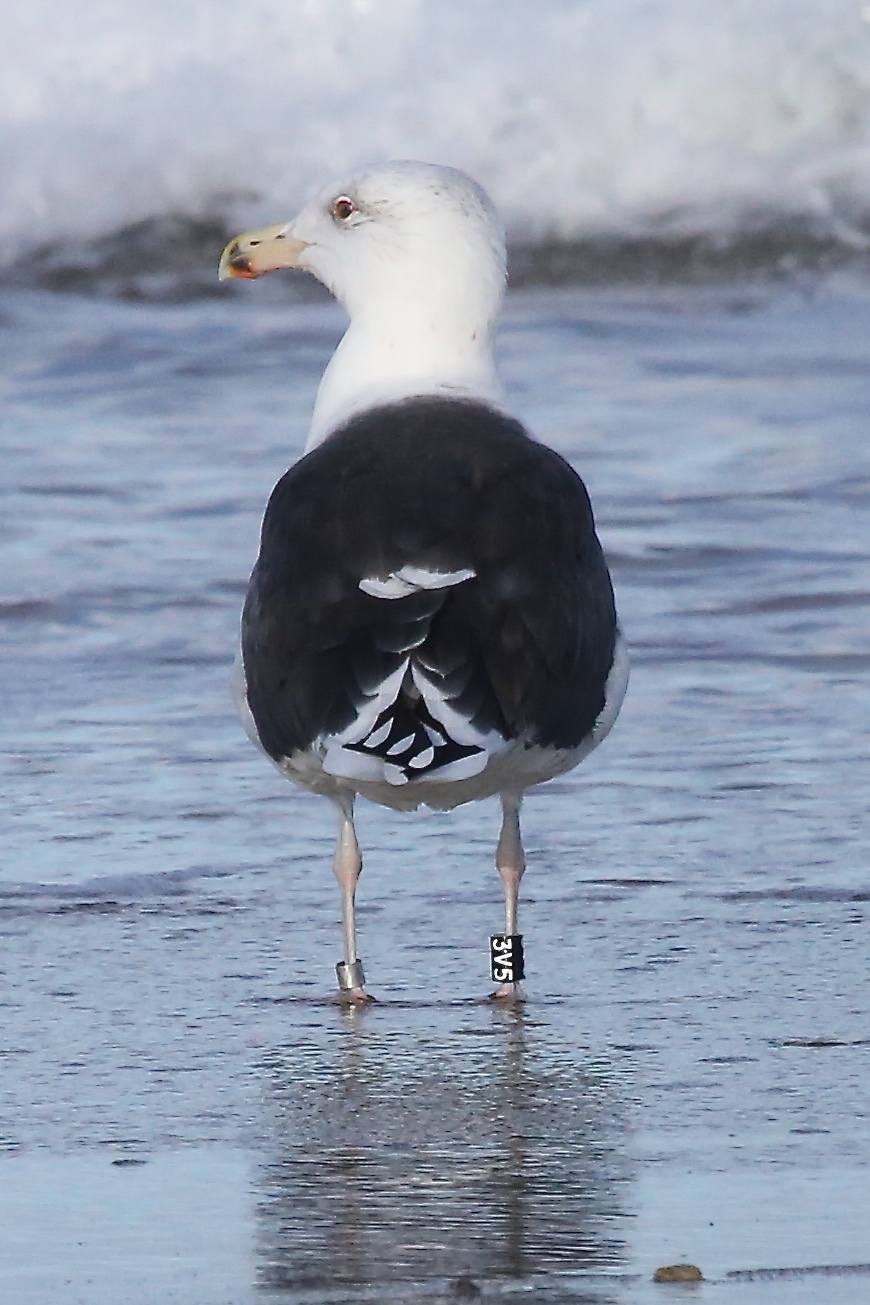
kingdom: Animalia
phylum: Chordata
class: Aves
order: Charadriiformes
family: Laridae
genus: Larus
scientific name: Larus marinus
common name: Great black-backed gull
